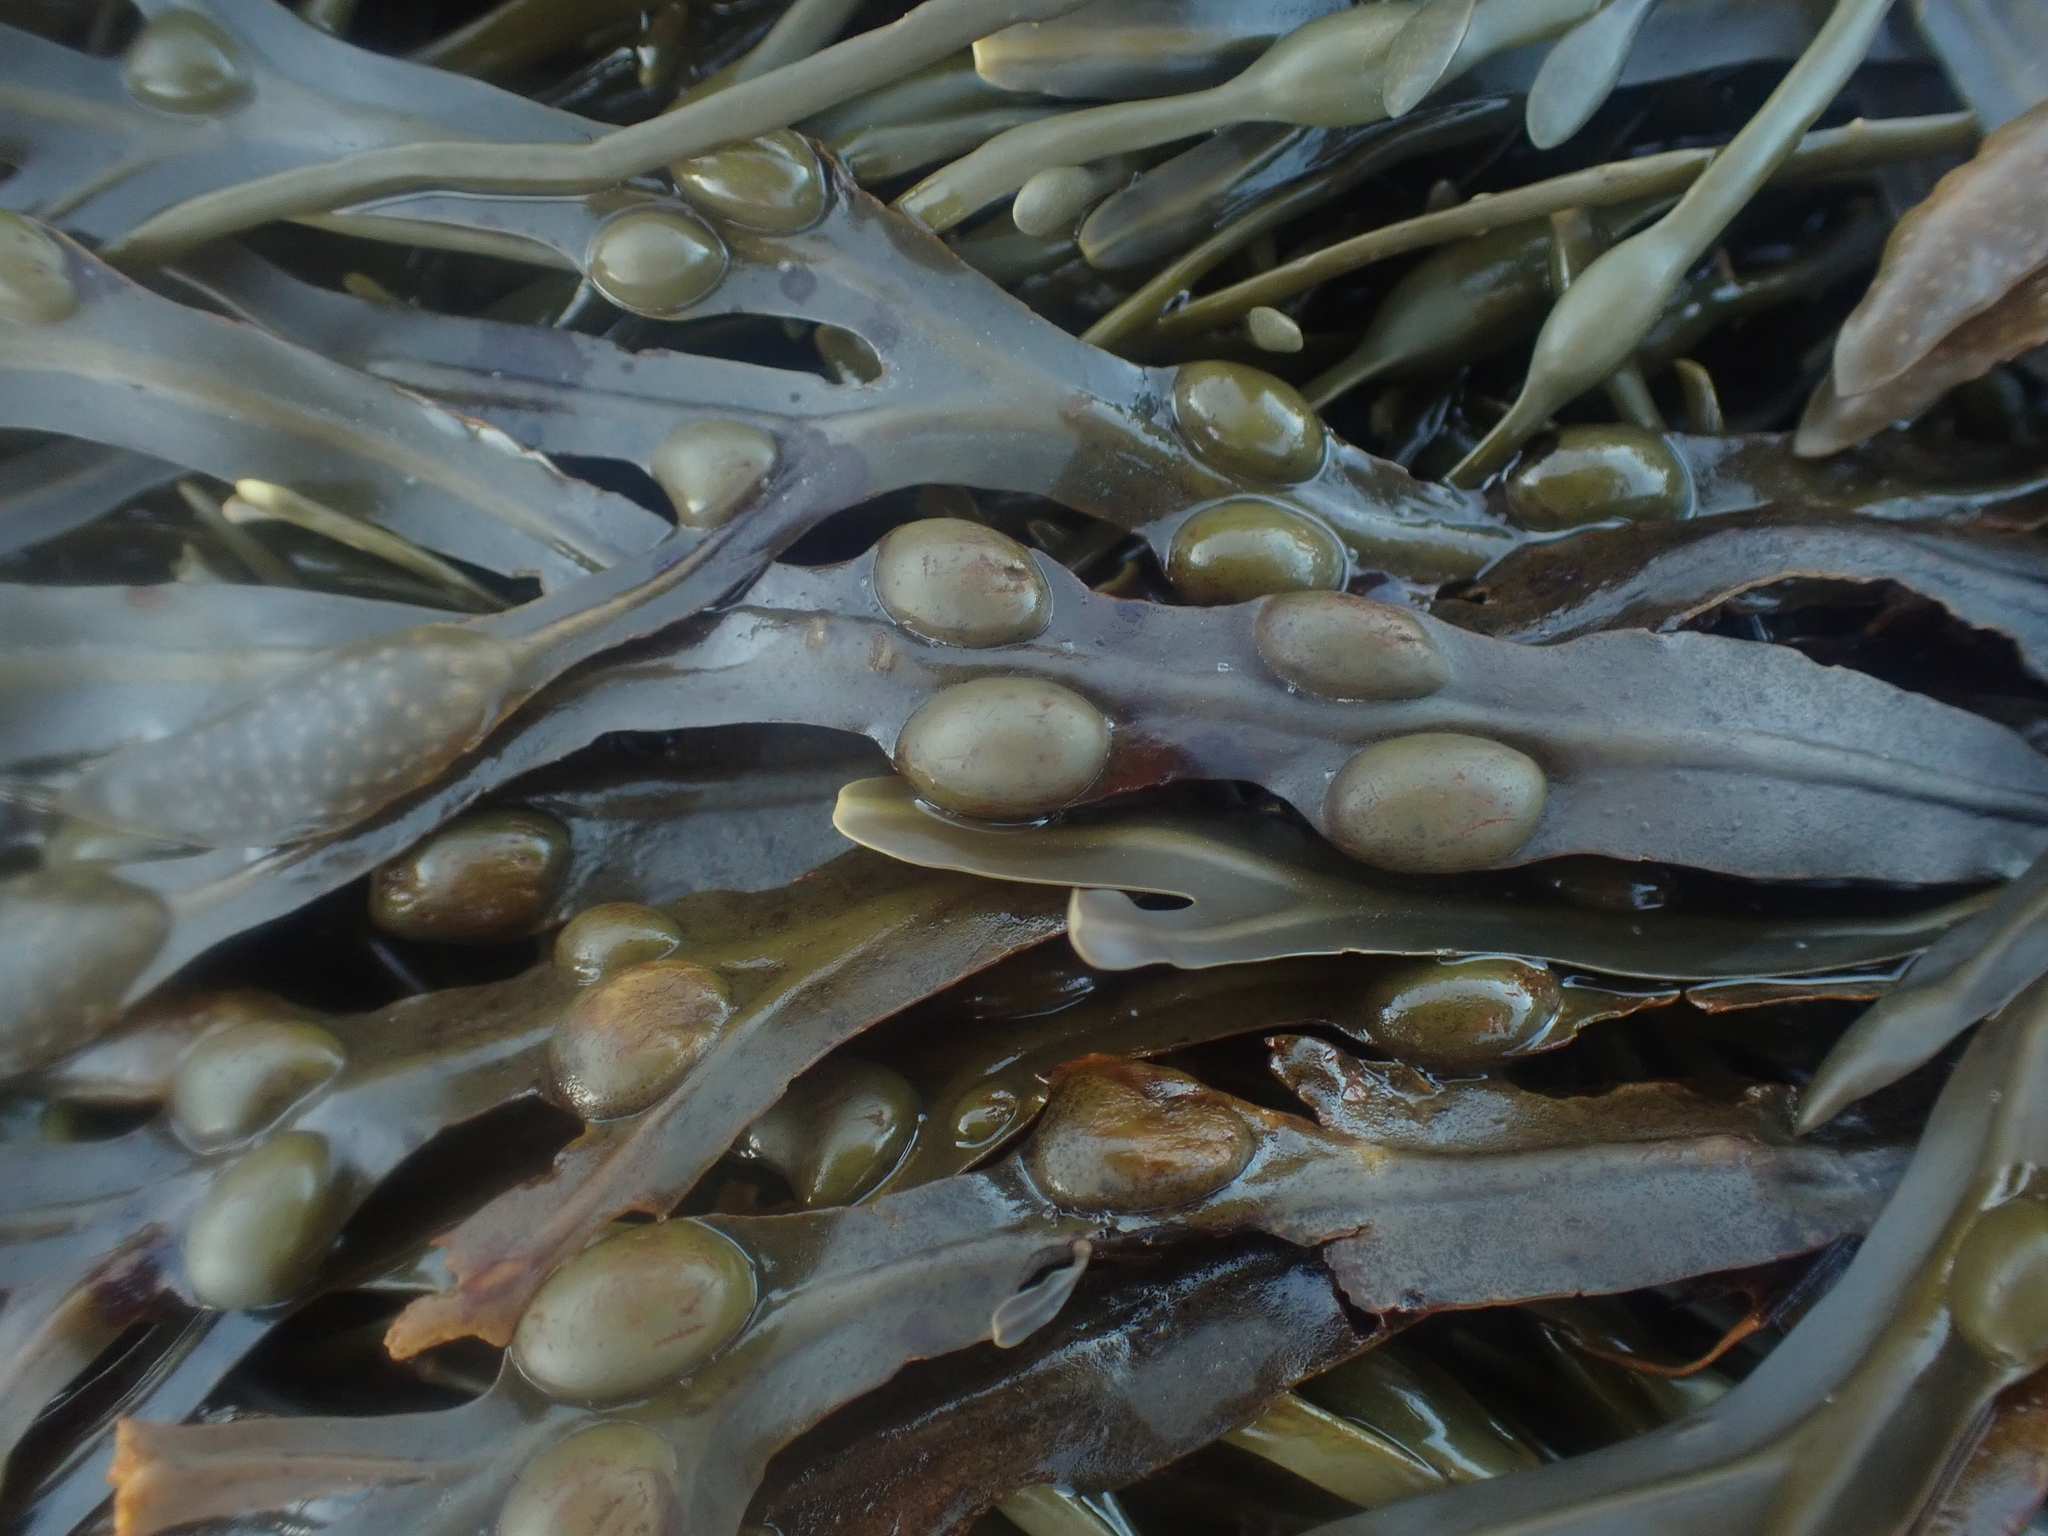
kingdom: Chromista
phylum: Ochrophyta
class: Phaeophyceae
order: Fucales
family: Fucaceae
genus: Fucus
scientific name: Fucus vesiculosus
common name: Bladder wrack
